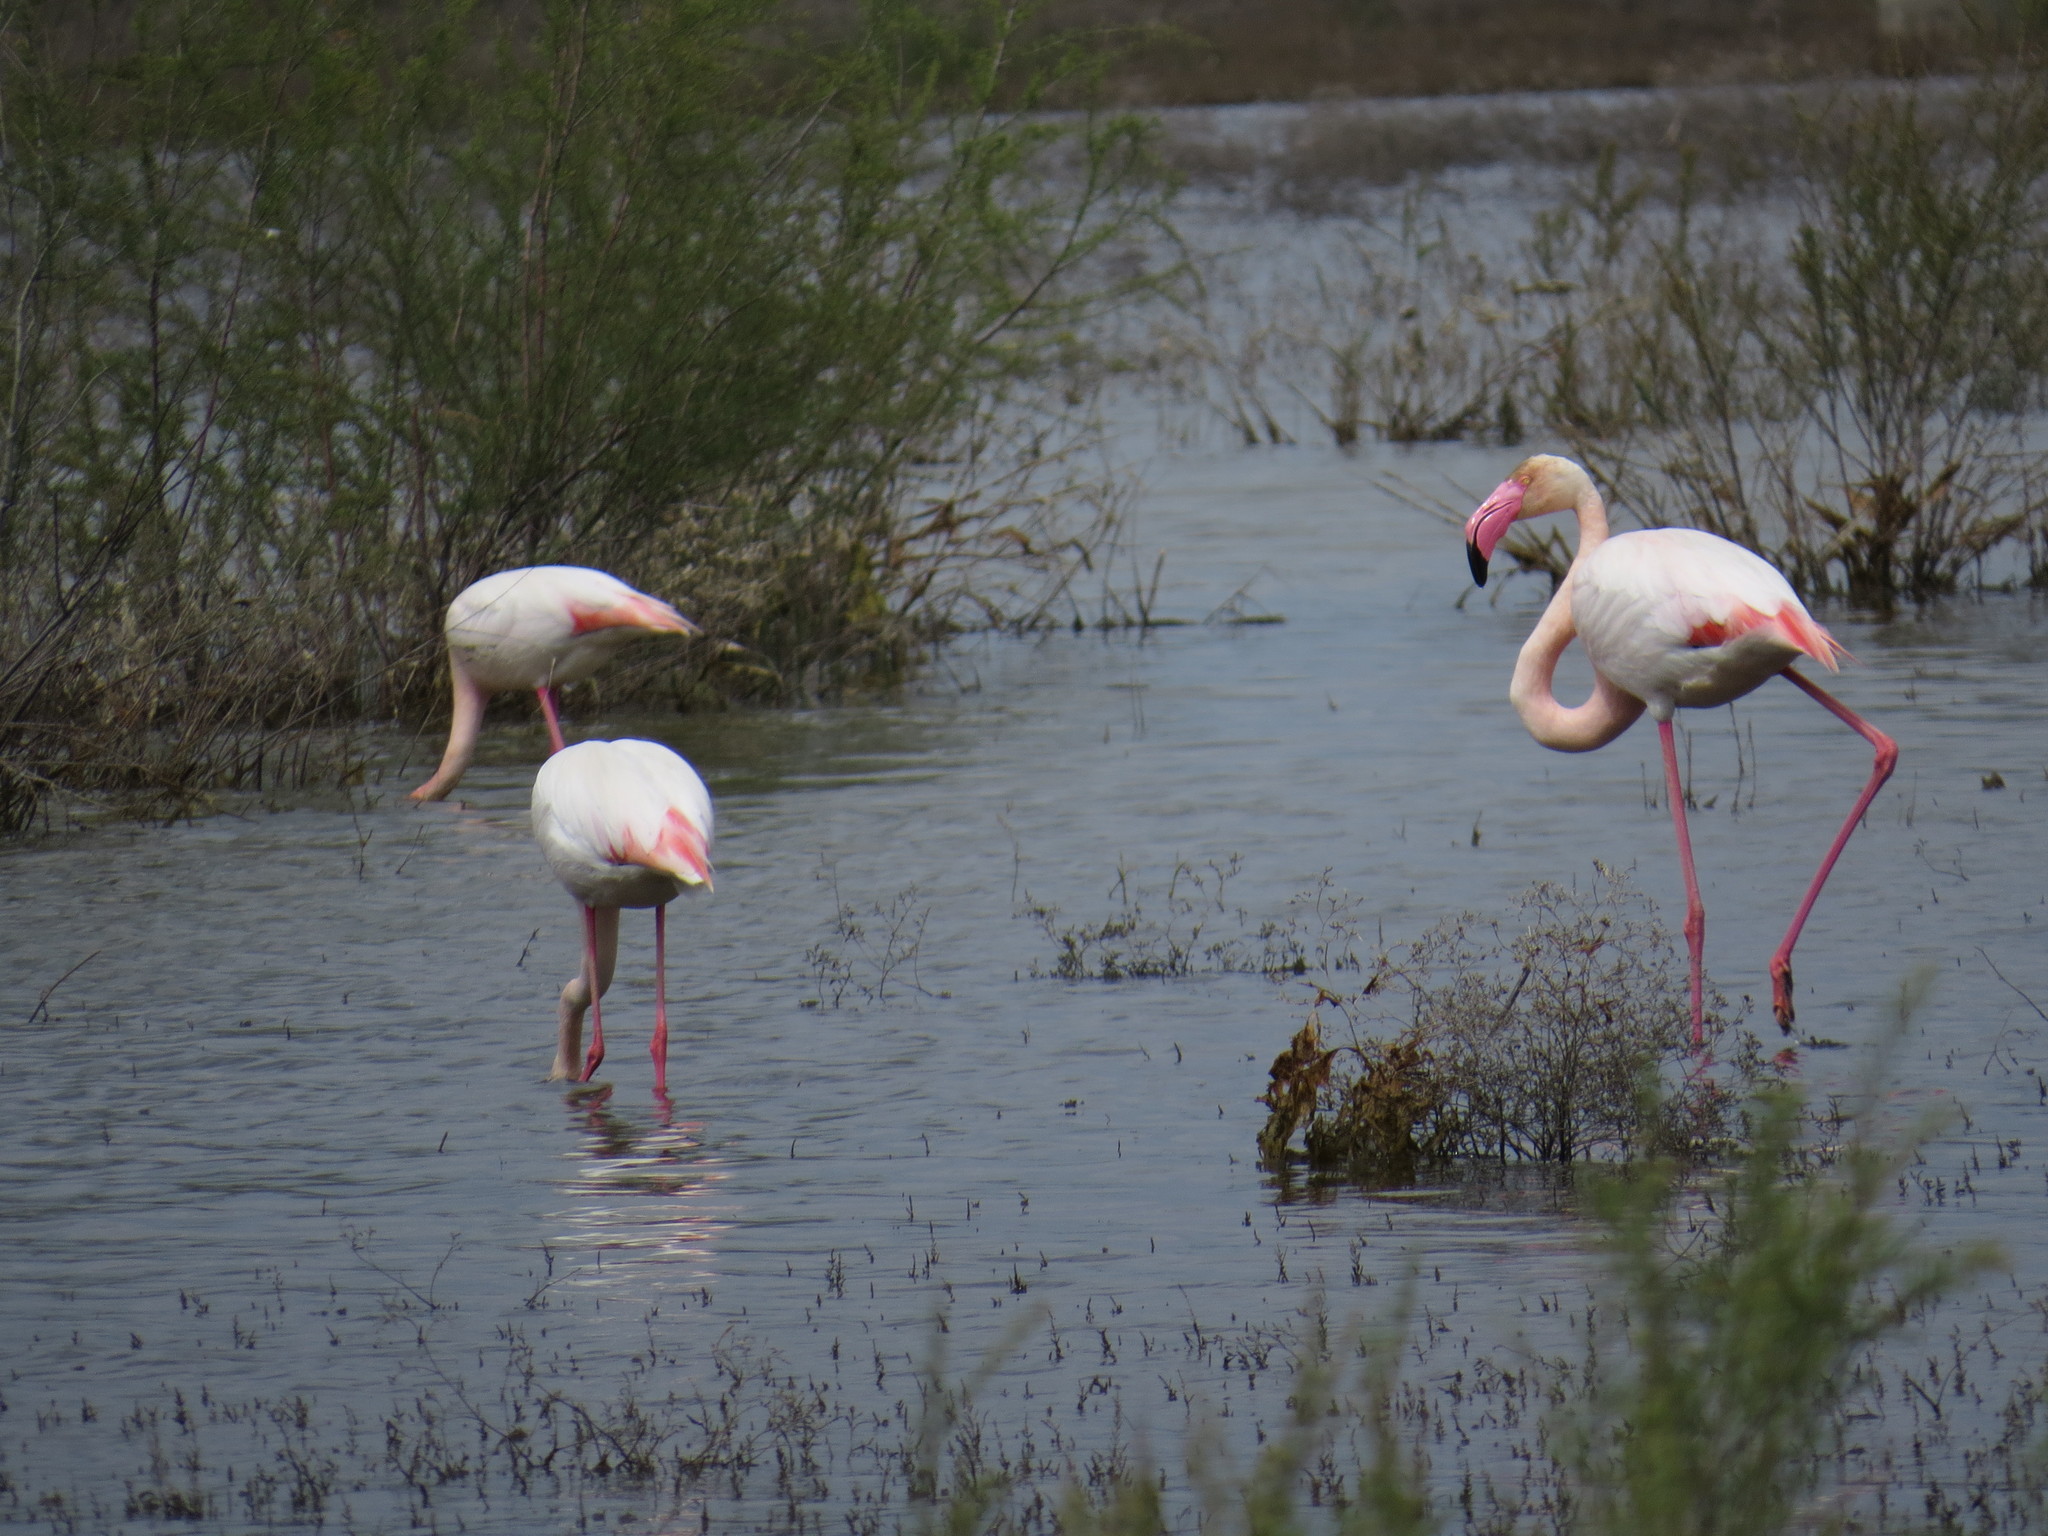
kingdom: Animalia
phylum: Chordata
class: Aves
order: Phoenicopteriformes
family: Phoenicopteridae
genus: Phoenicopterus
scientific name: Phoenicopterus roseus
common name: Greater flamingo
